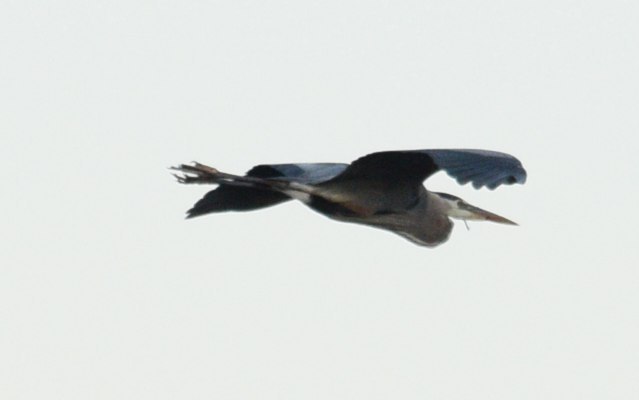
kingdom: Animalia
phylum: Chordata
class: Aves
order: Pelecaniformes
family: Ardeidae
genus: Ardea
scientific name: Ardea herodias
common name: Great blue heron
